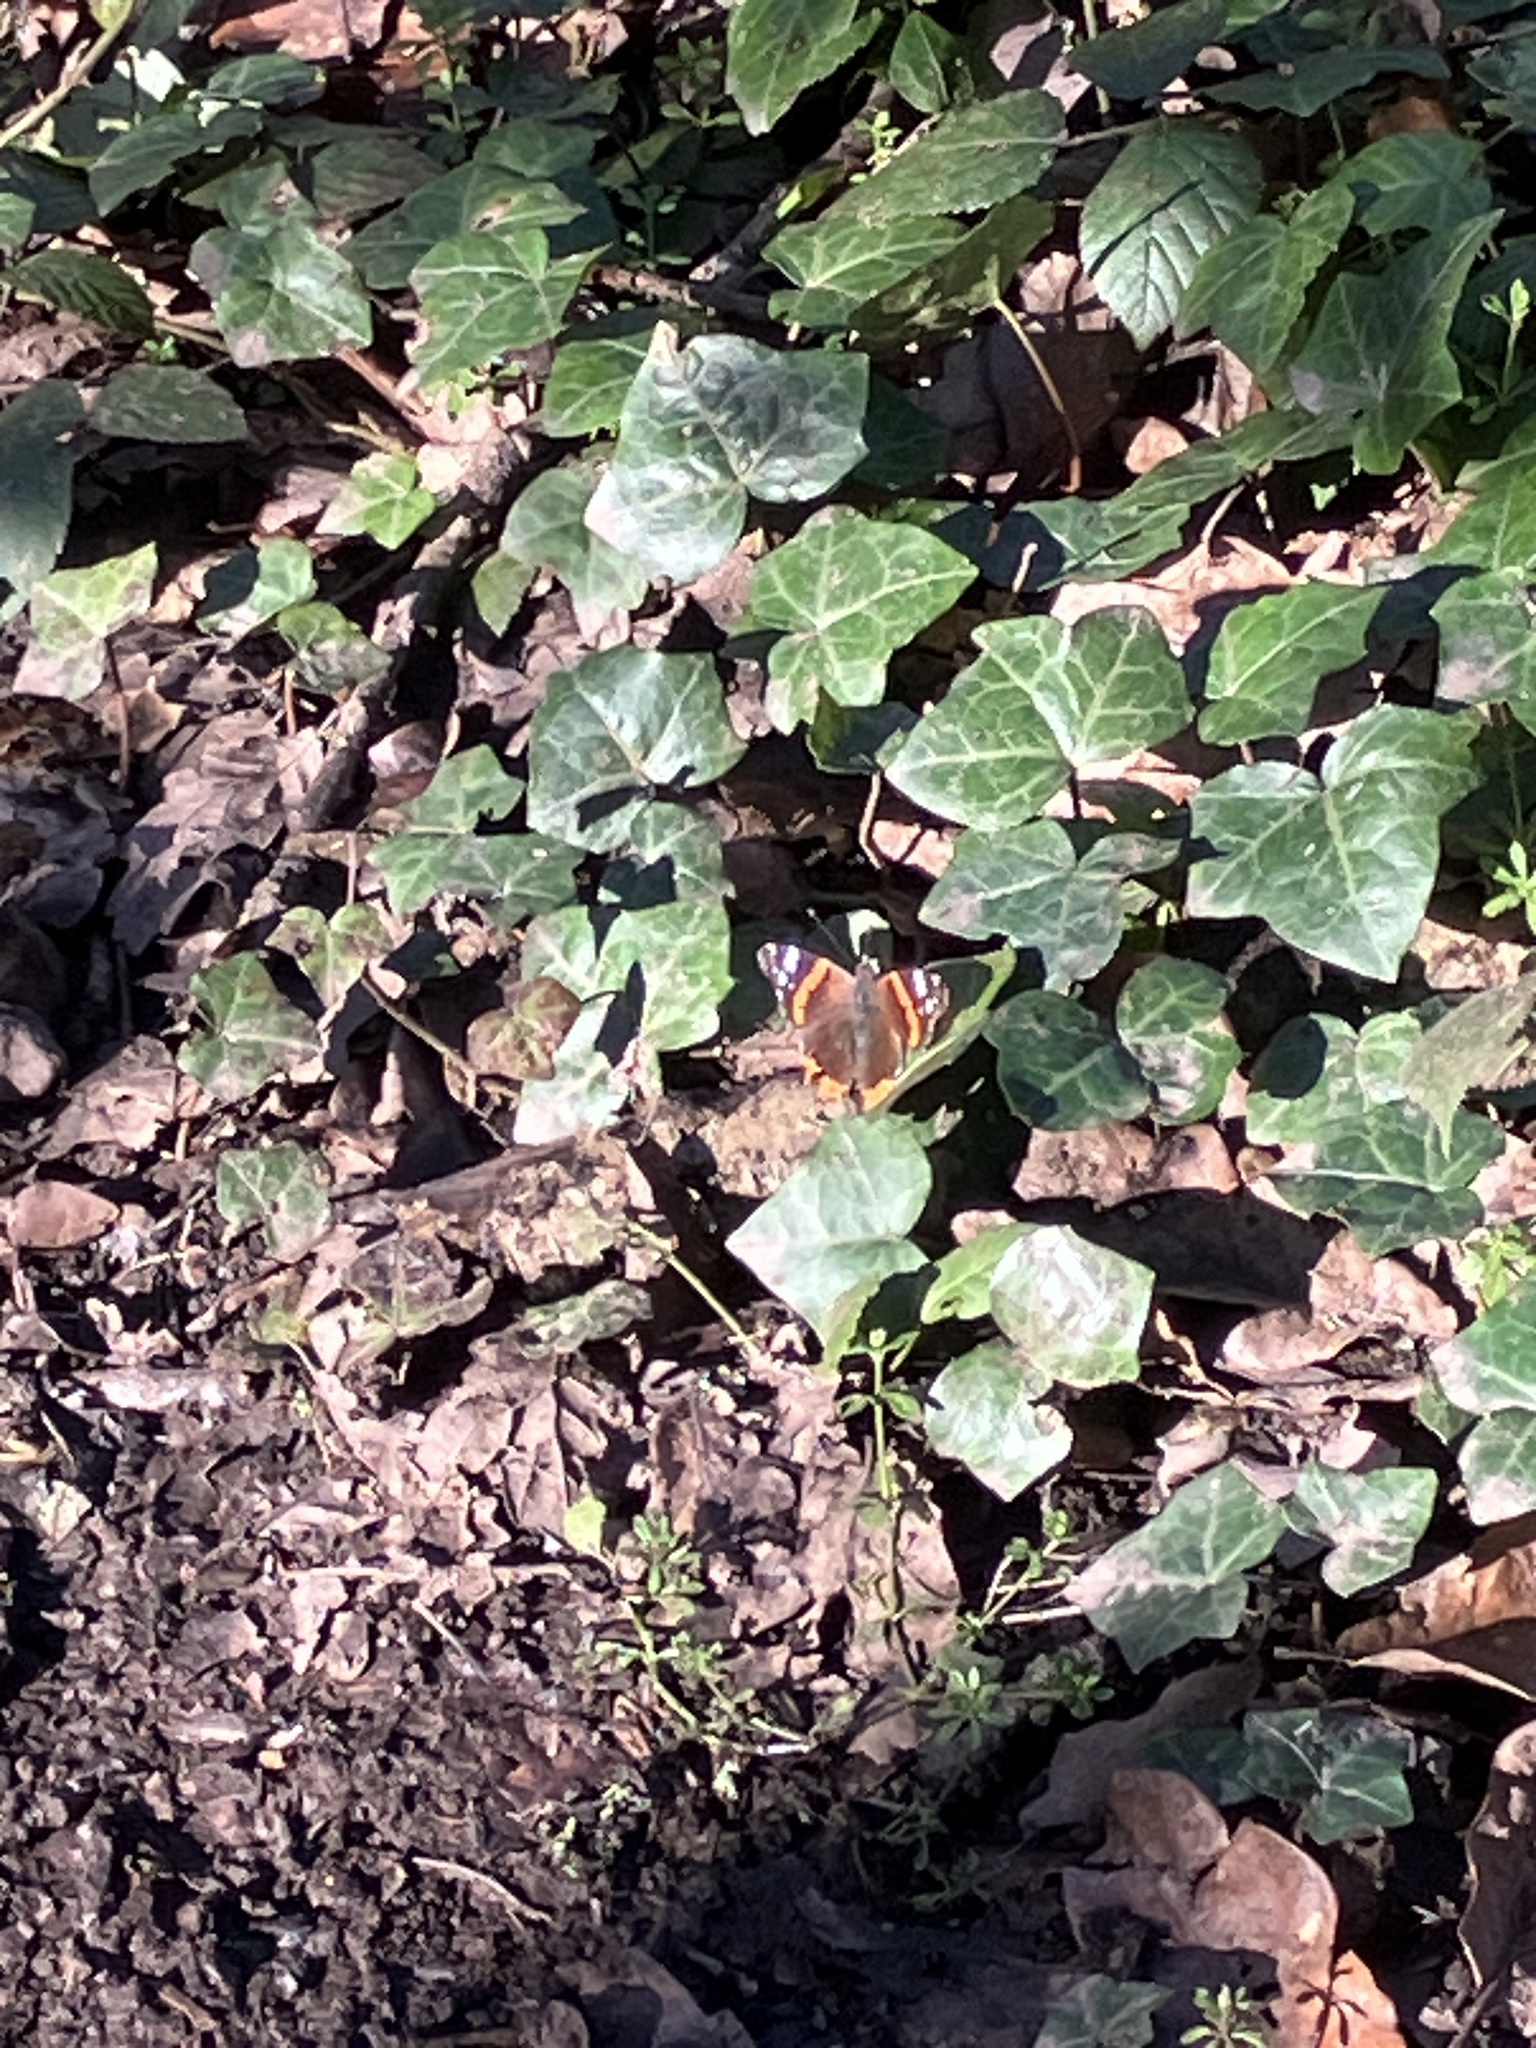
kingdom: Animalia
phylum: Arthropoda
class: Insecta
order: Lepidoptera
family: Nymphalidae
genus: Vanessa
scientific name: Vanessa atalanta
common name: Red admiral
